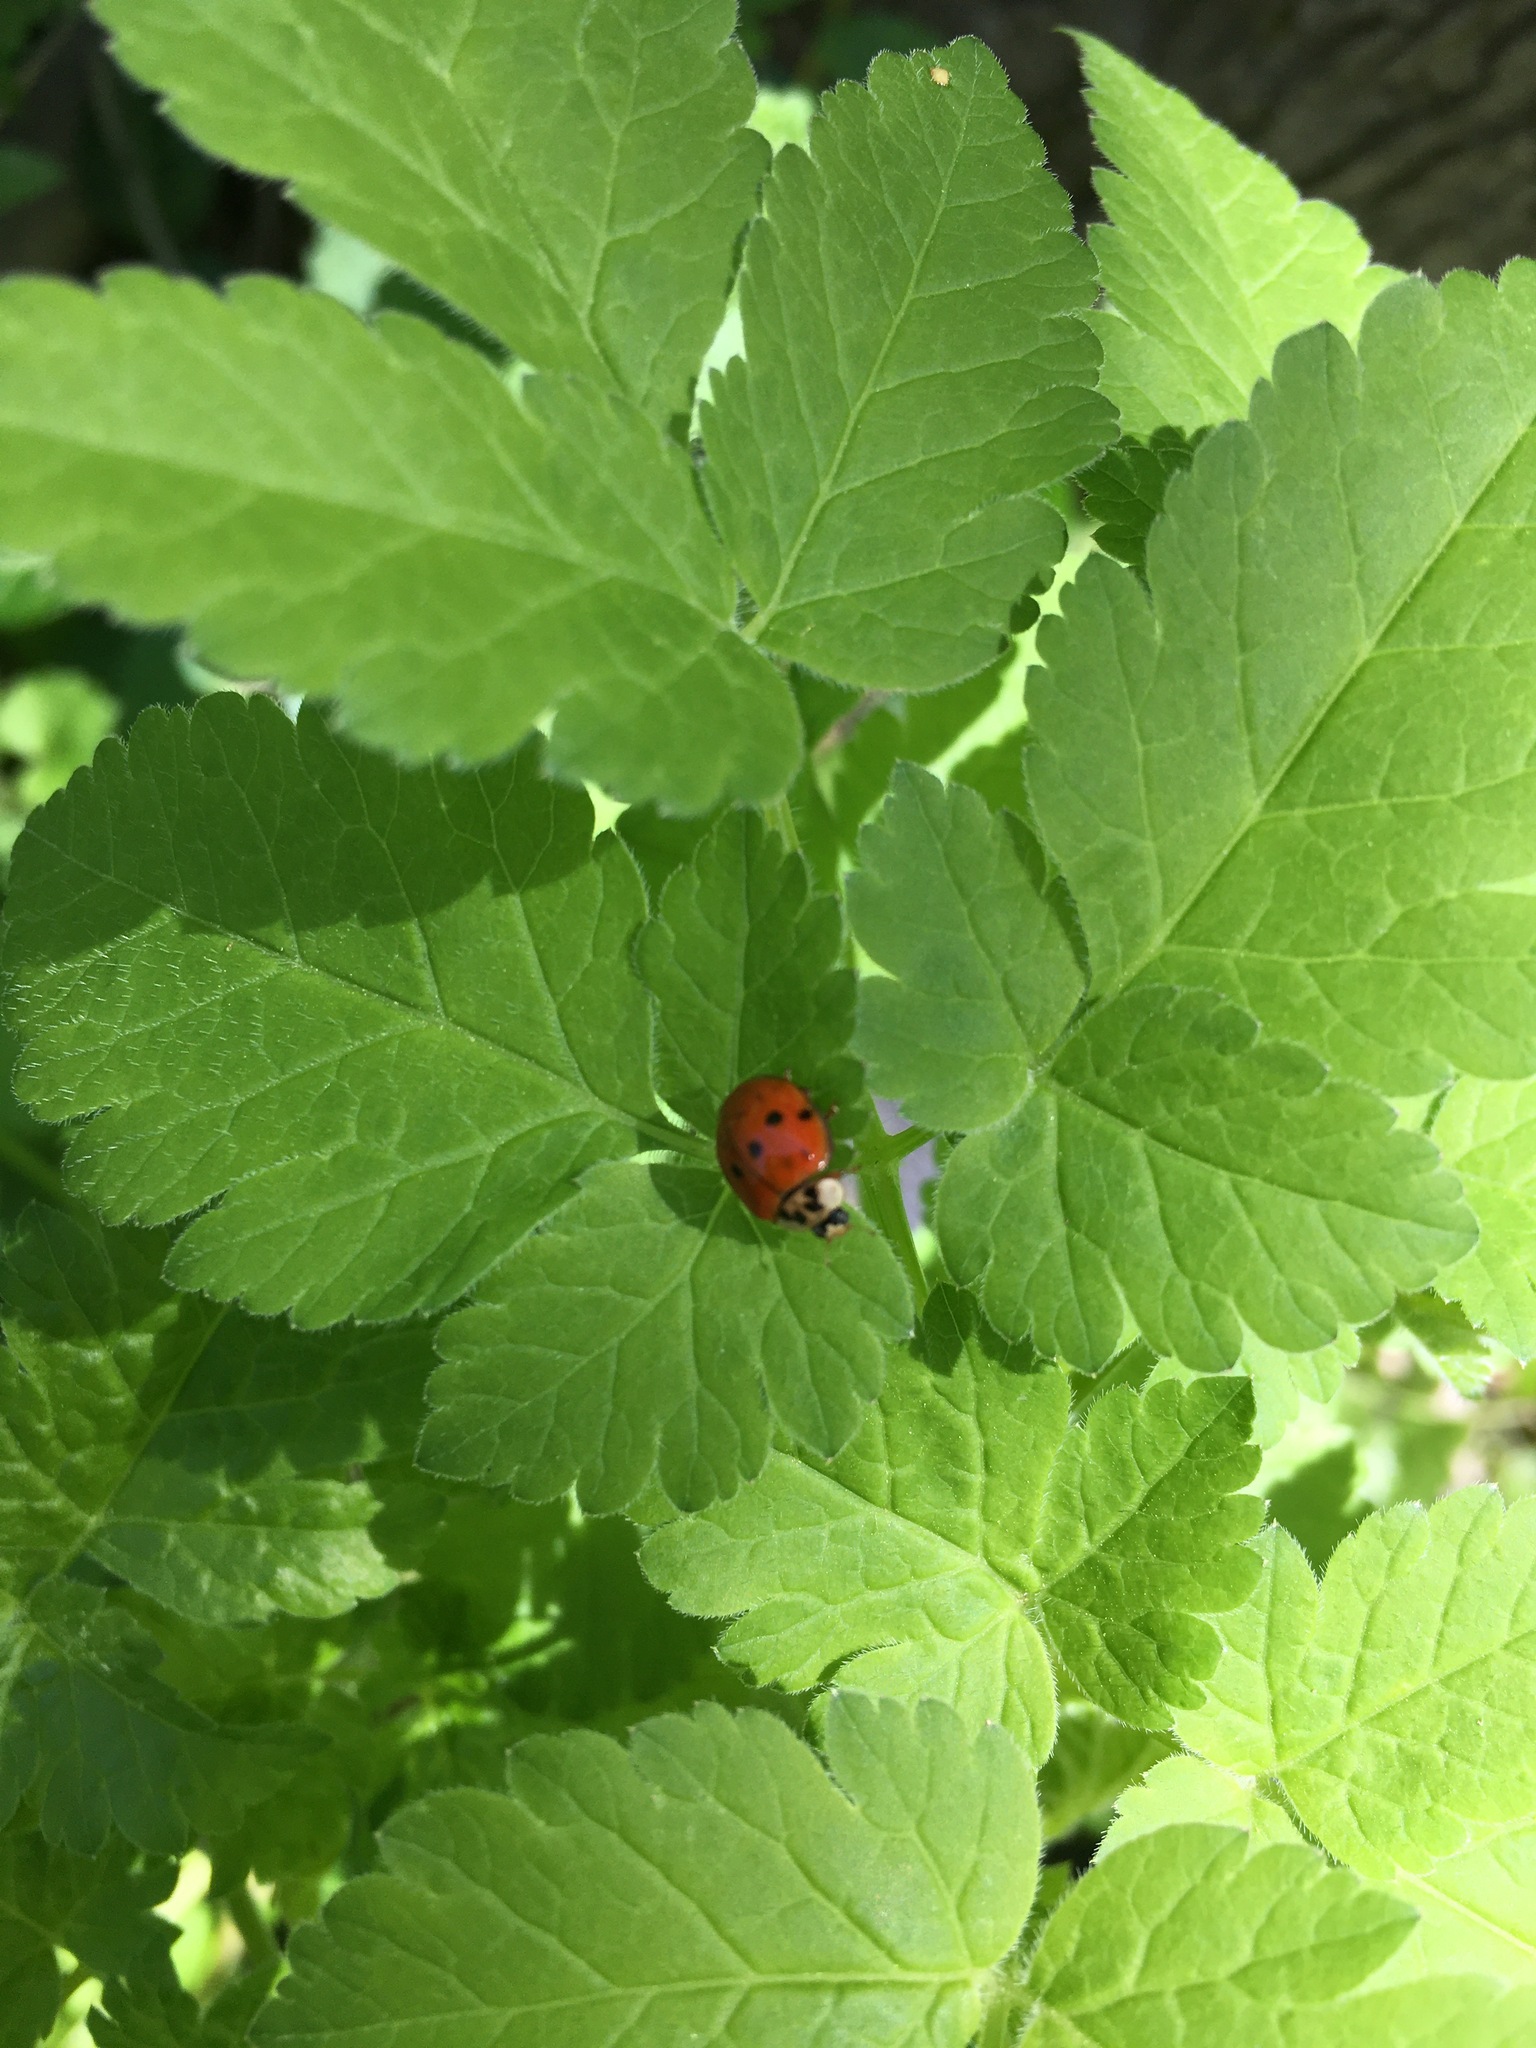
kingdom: Animalia
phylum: Arthropoda
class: Insecta
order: Coleoptera
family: Coccinellidae
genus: Harmonia
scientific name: Harmonia axyridis
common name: Harlequin ladybird
